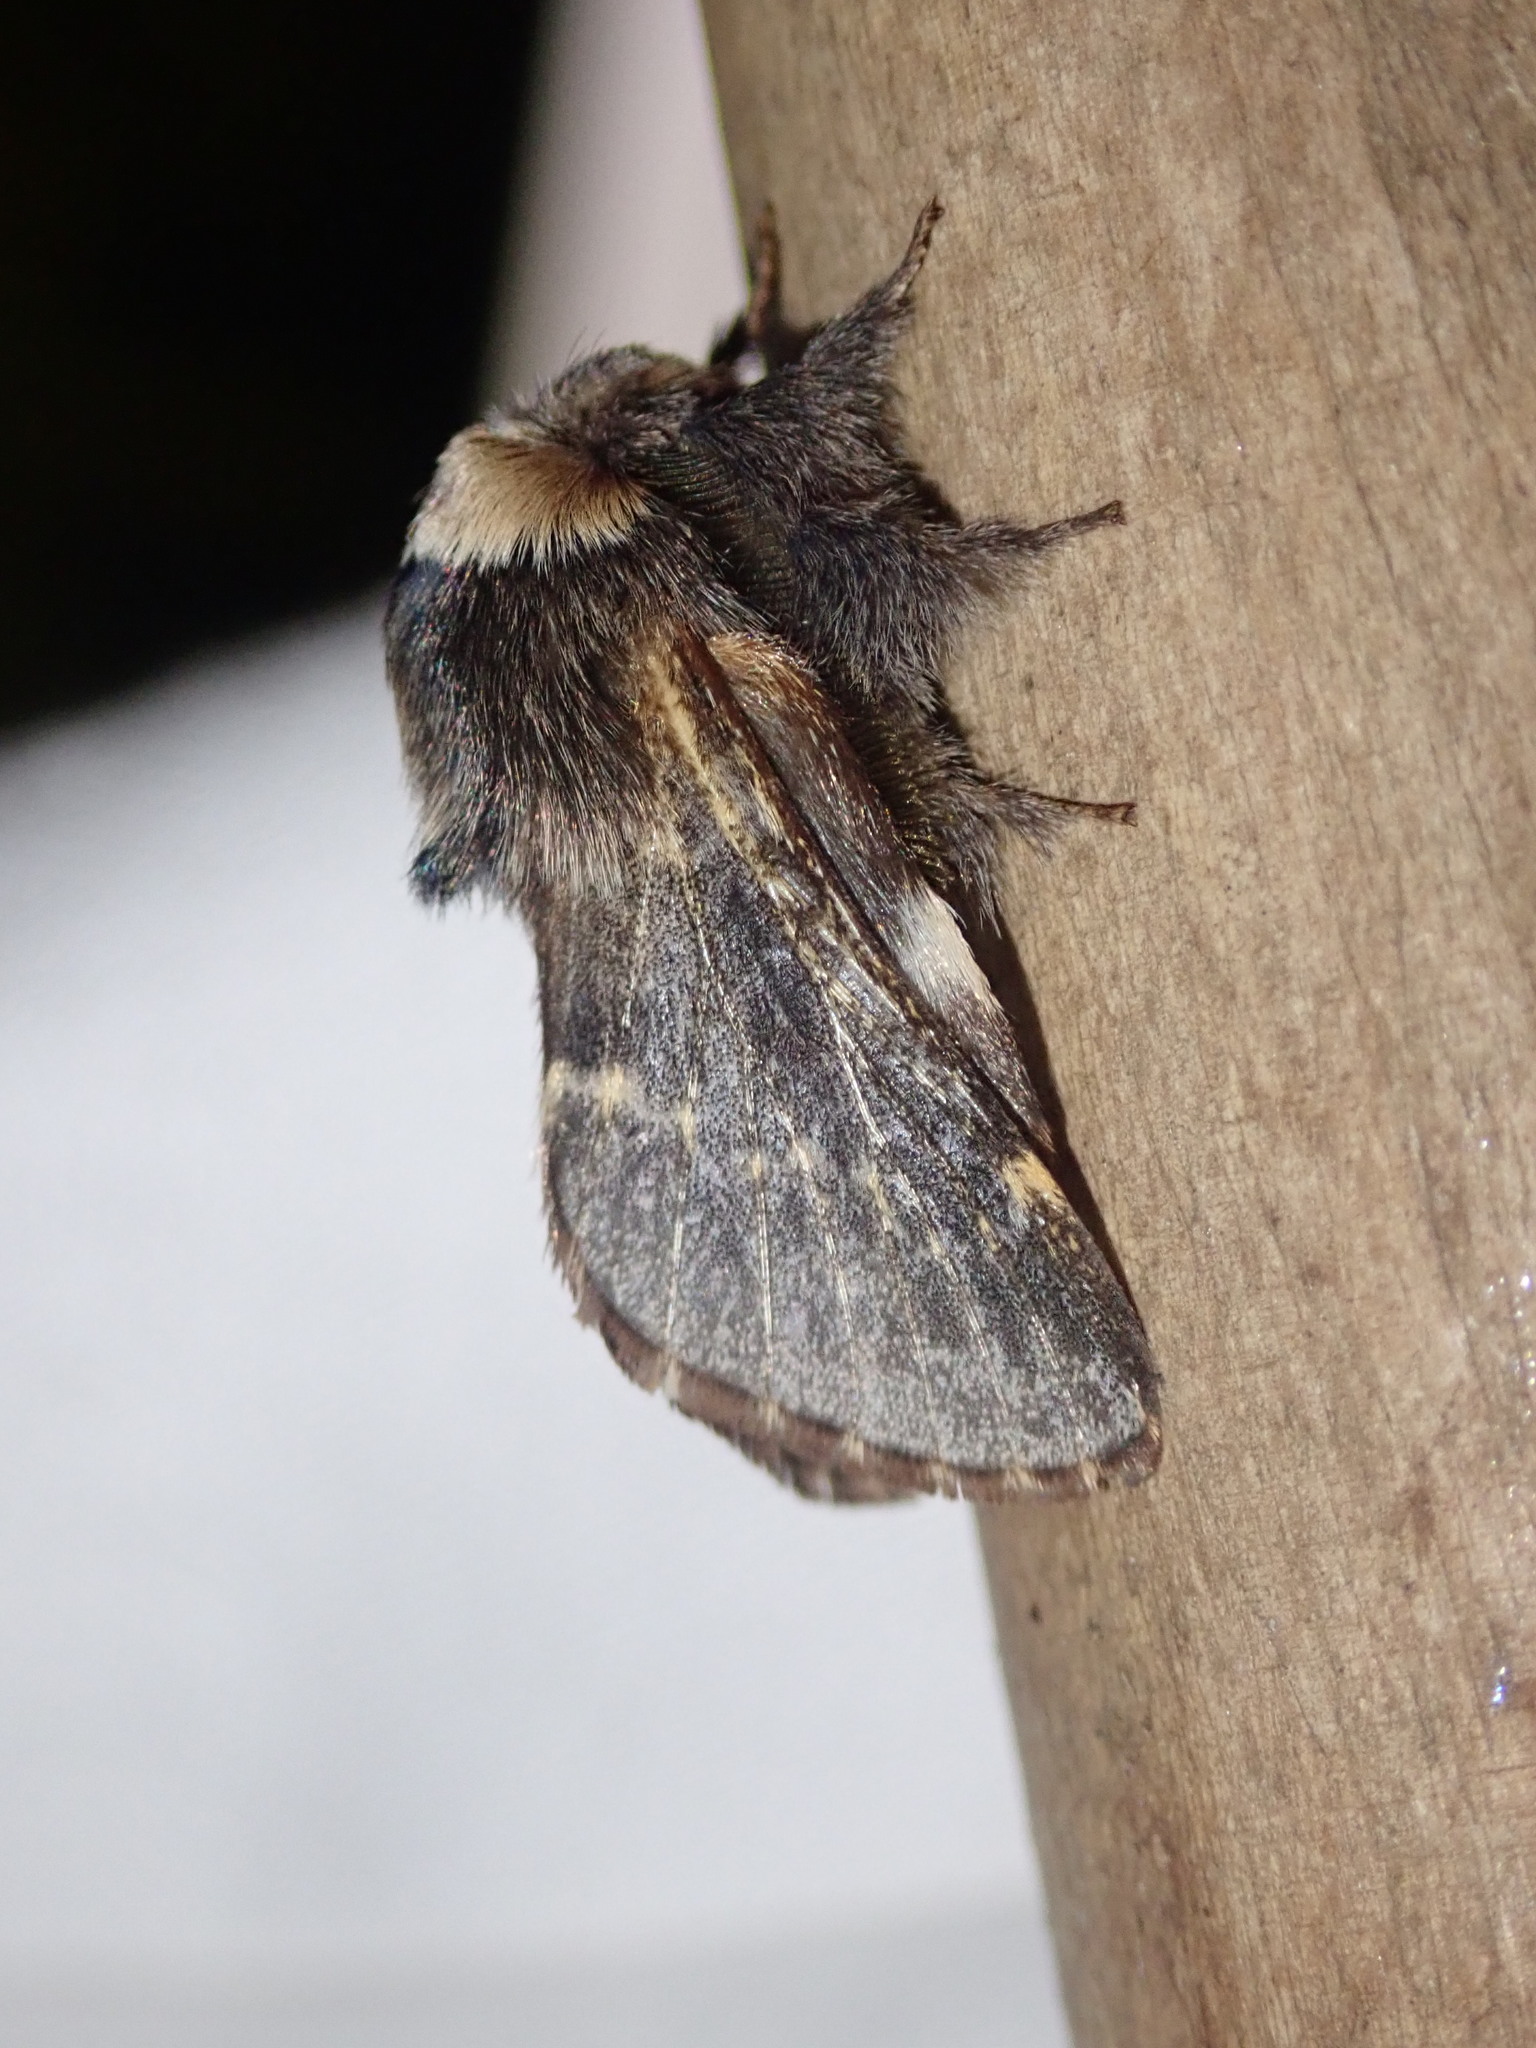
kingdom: Animalia
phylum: Arthropoda
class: Insecta
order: Lepidoptera
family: Lasiocampidae
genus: Poecilocampa
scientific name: Poecilocampa populi
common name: December moth
